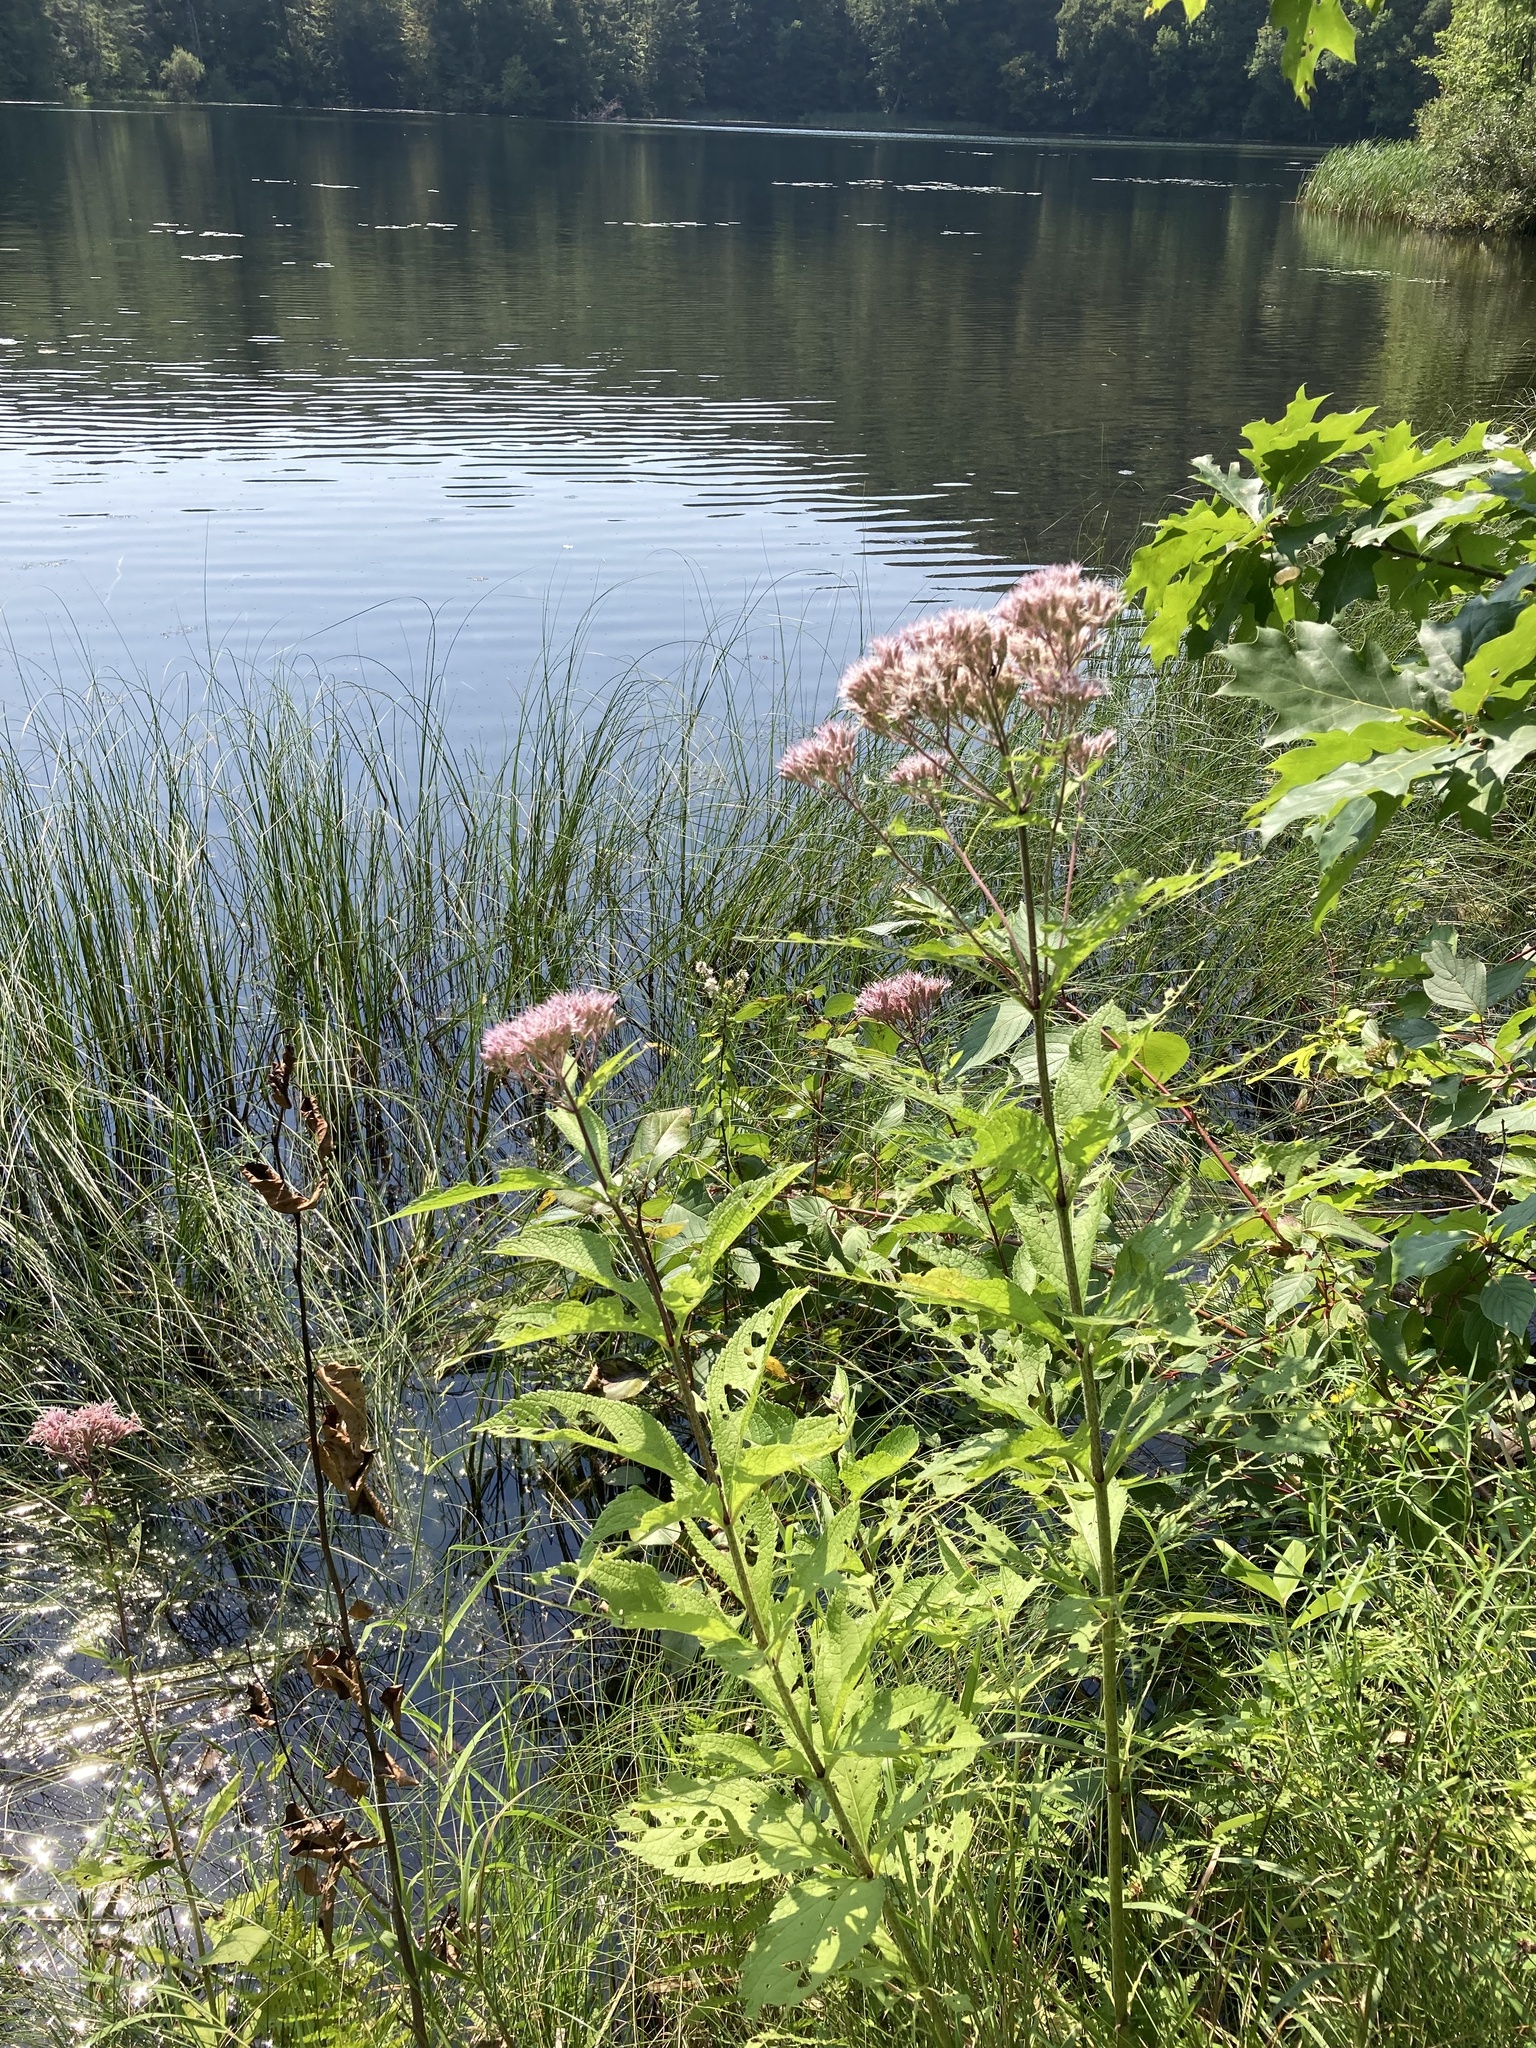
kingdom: Plantae
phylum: Tracheophyta
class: Magnoliopsida
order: Asterales
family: Asteraceae
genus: Eutrochium
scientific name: Eutrochium maculatum
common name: Spotted joe pye weed
